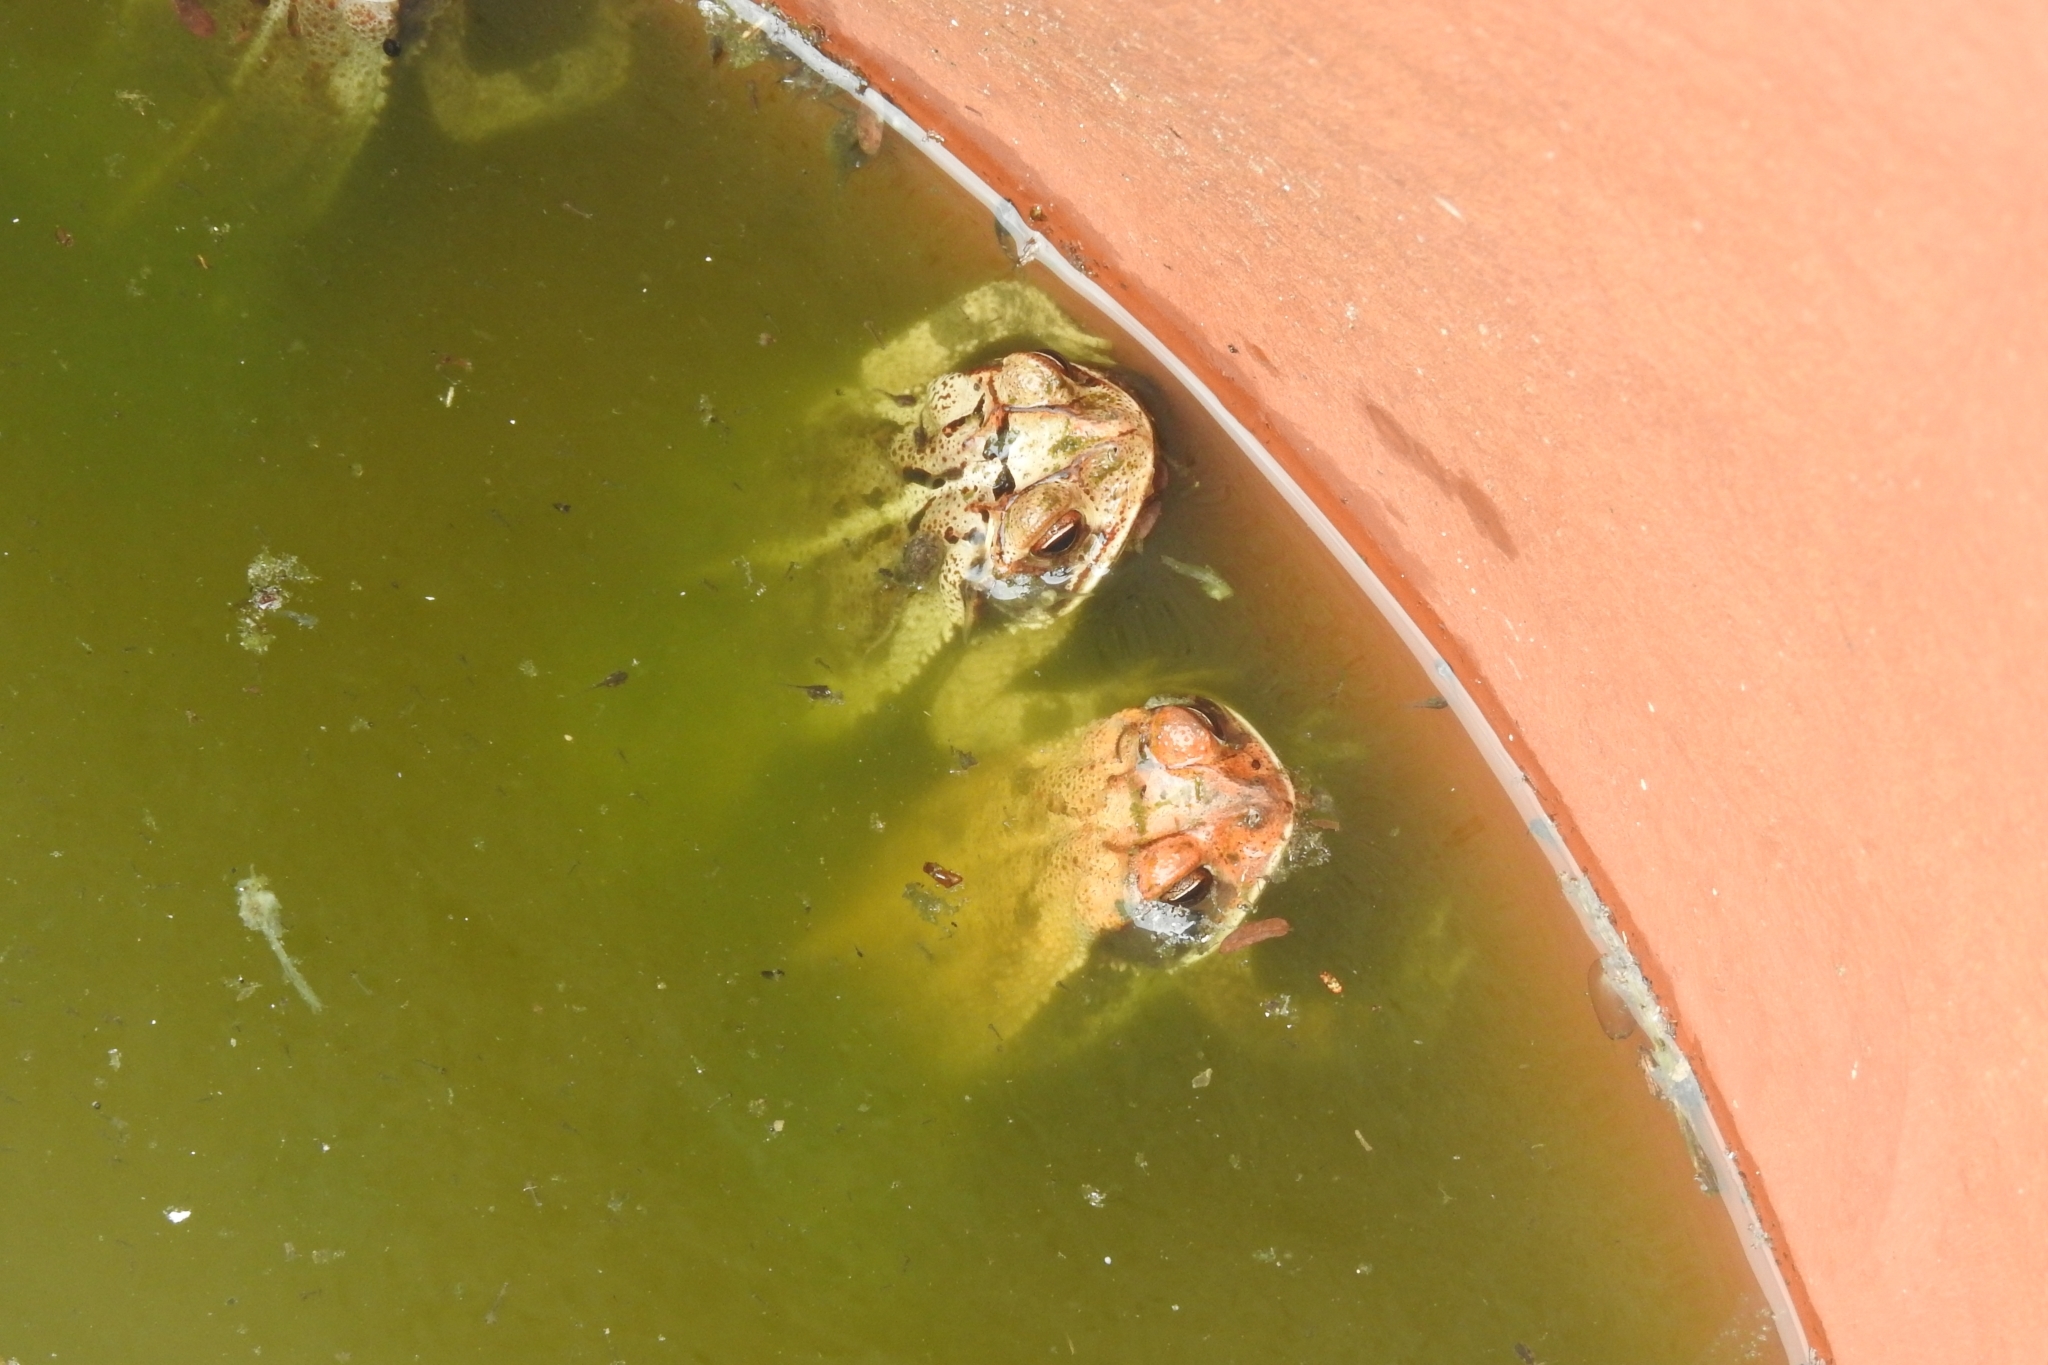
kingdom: Animalia
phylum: Chordata
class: Amphibia
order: Anura
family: Bufonidae
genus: Incilius
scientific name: Incilius valliceps
